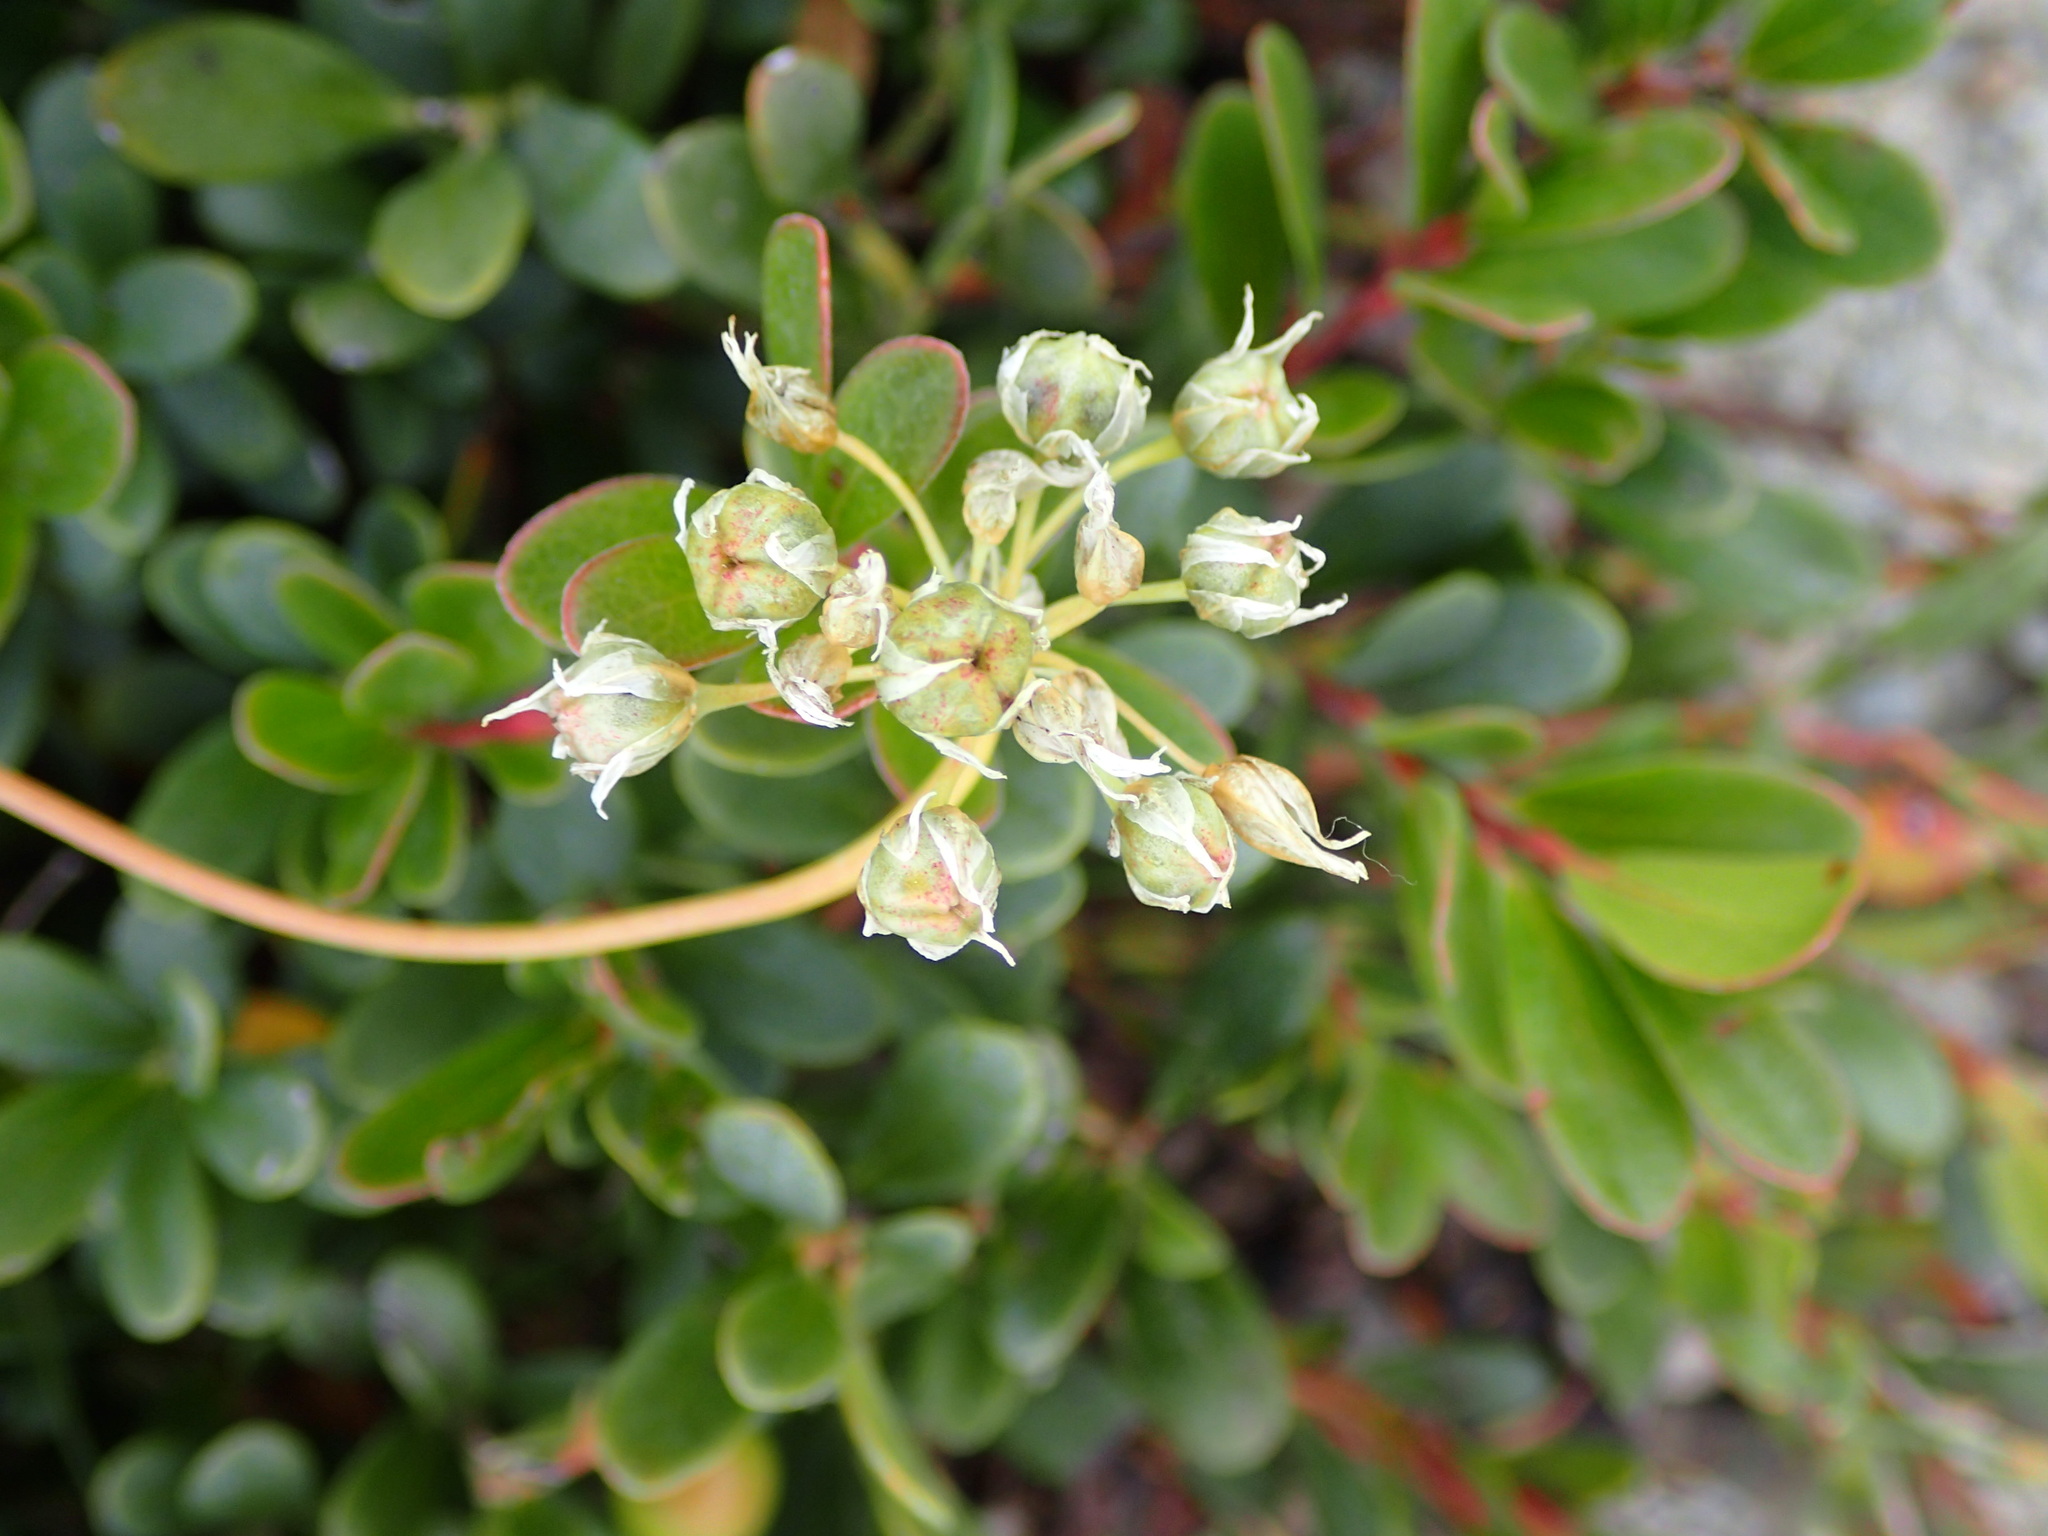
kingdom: Plantae
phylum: Tracheophyta
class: Liliopsida
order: Asparagales
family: Amaryllidaceae
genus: Allium
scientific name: Allium cernuum
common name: Nodding onion
